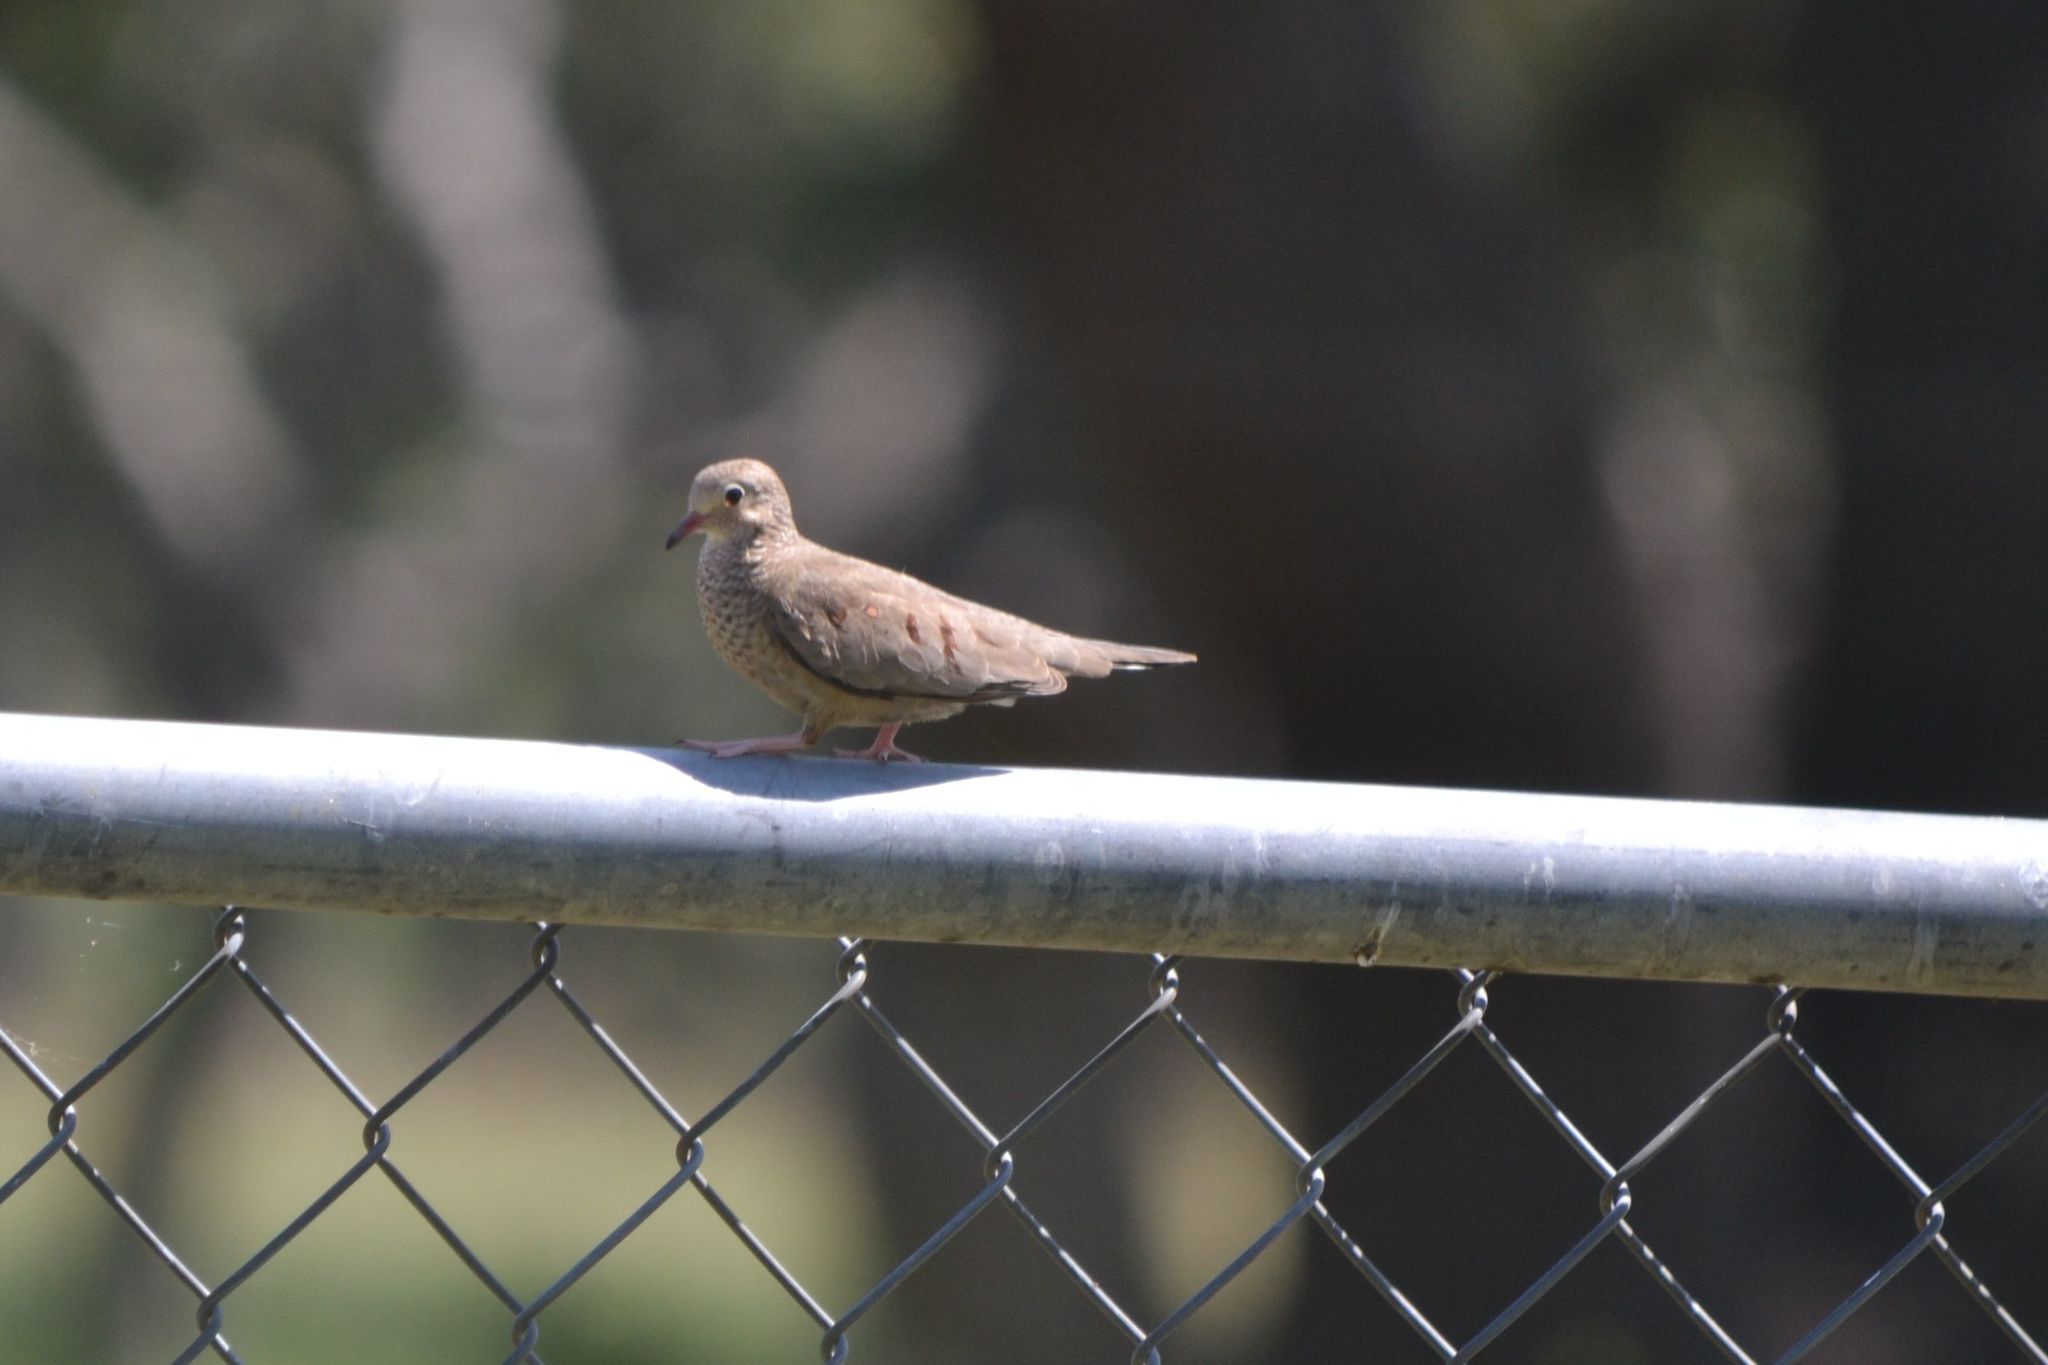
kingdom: Animalia
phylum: Chordata
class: Aves
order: Columbiformes
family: Columbidae
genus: Columbina
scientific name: Columbina passerina
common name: Common ground-dove
